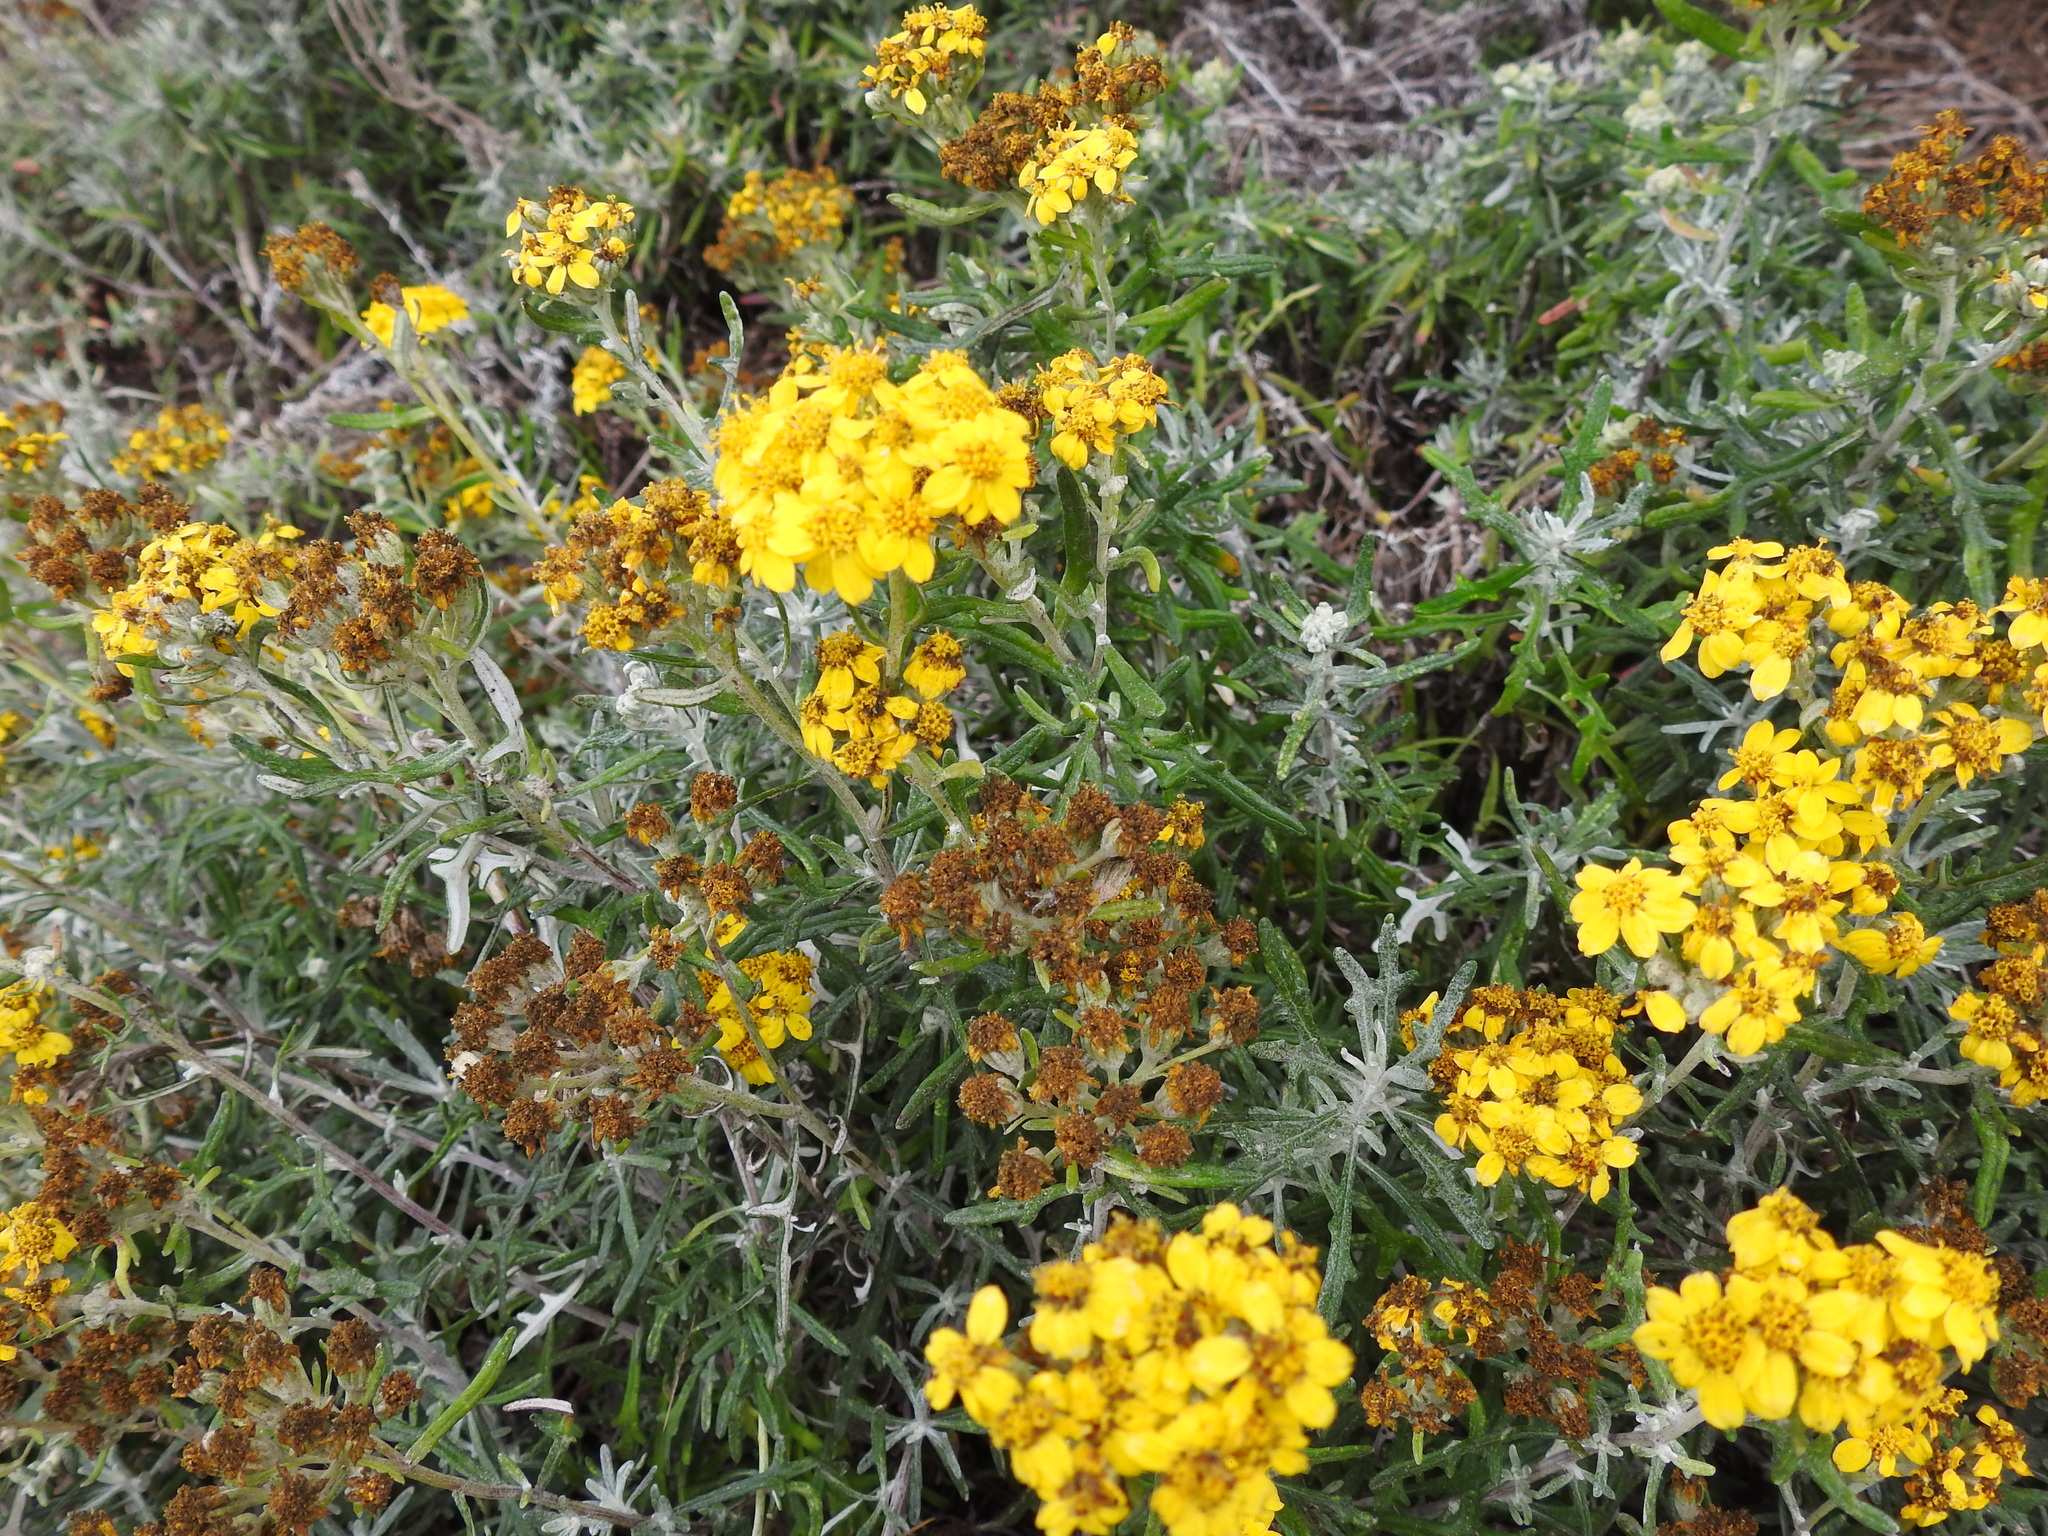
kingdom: Plantae
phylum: Tracheophyta
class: Magnoliopsida
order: Asterales
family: Asteraceae
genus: Eriophyllum
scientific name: Eriophyllum staechadifolium
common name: Lizardtail
